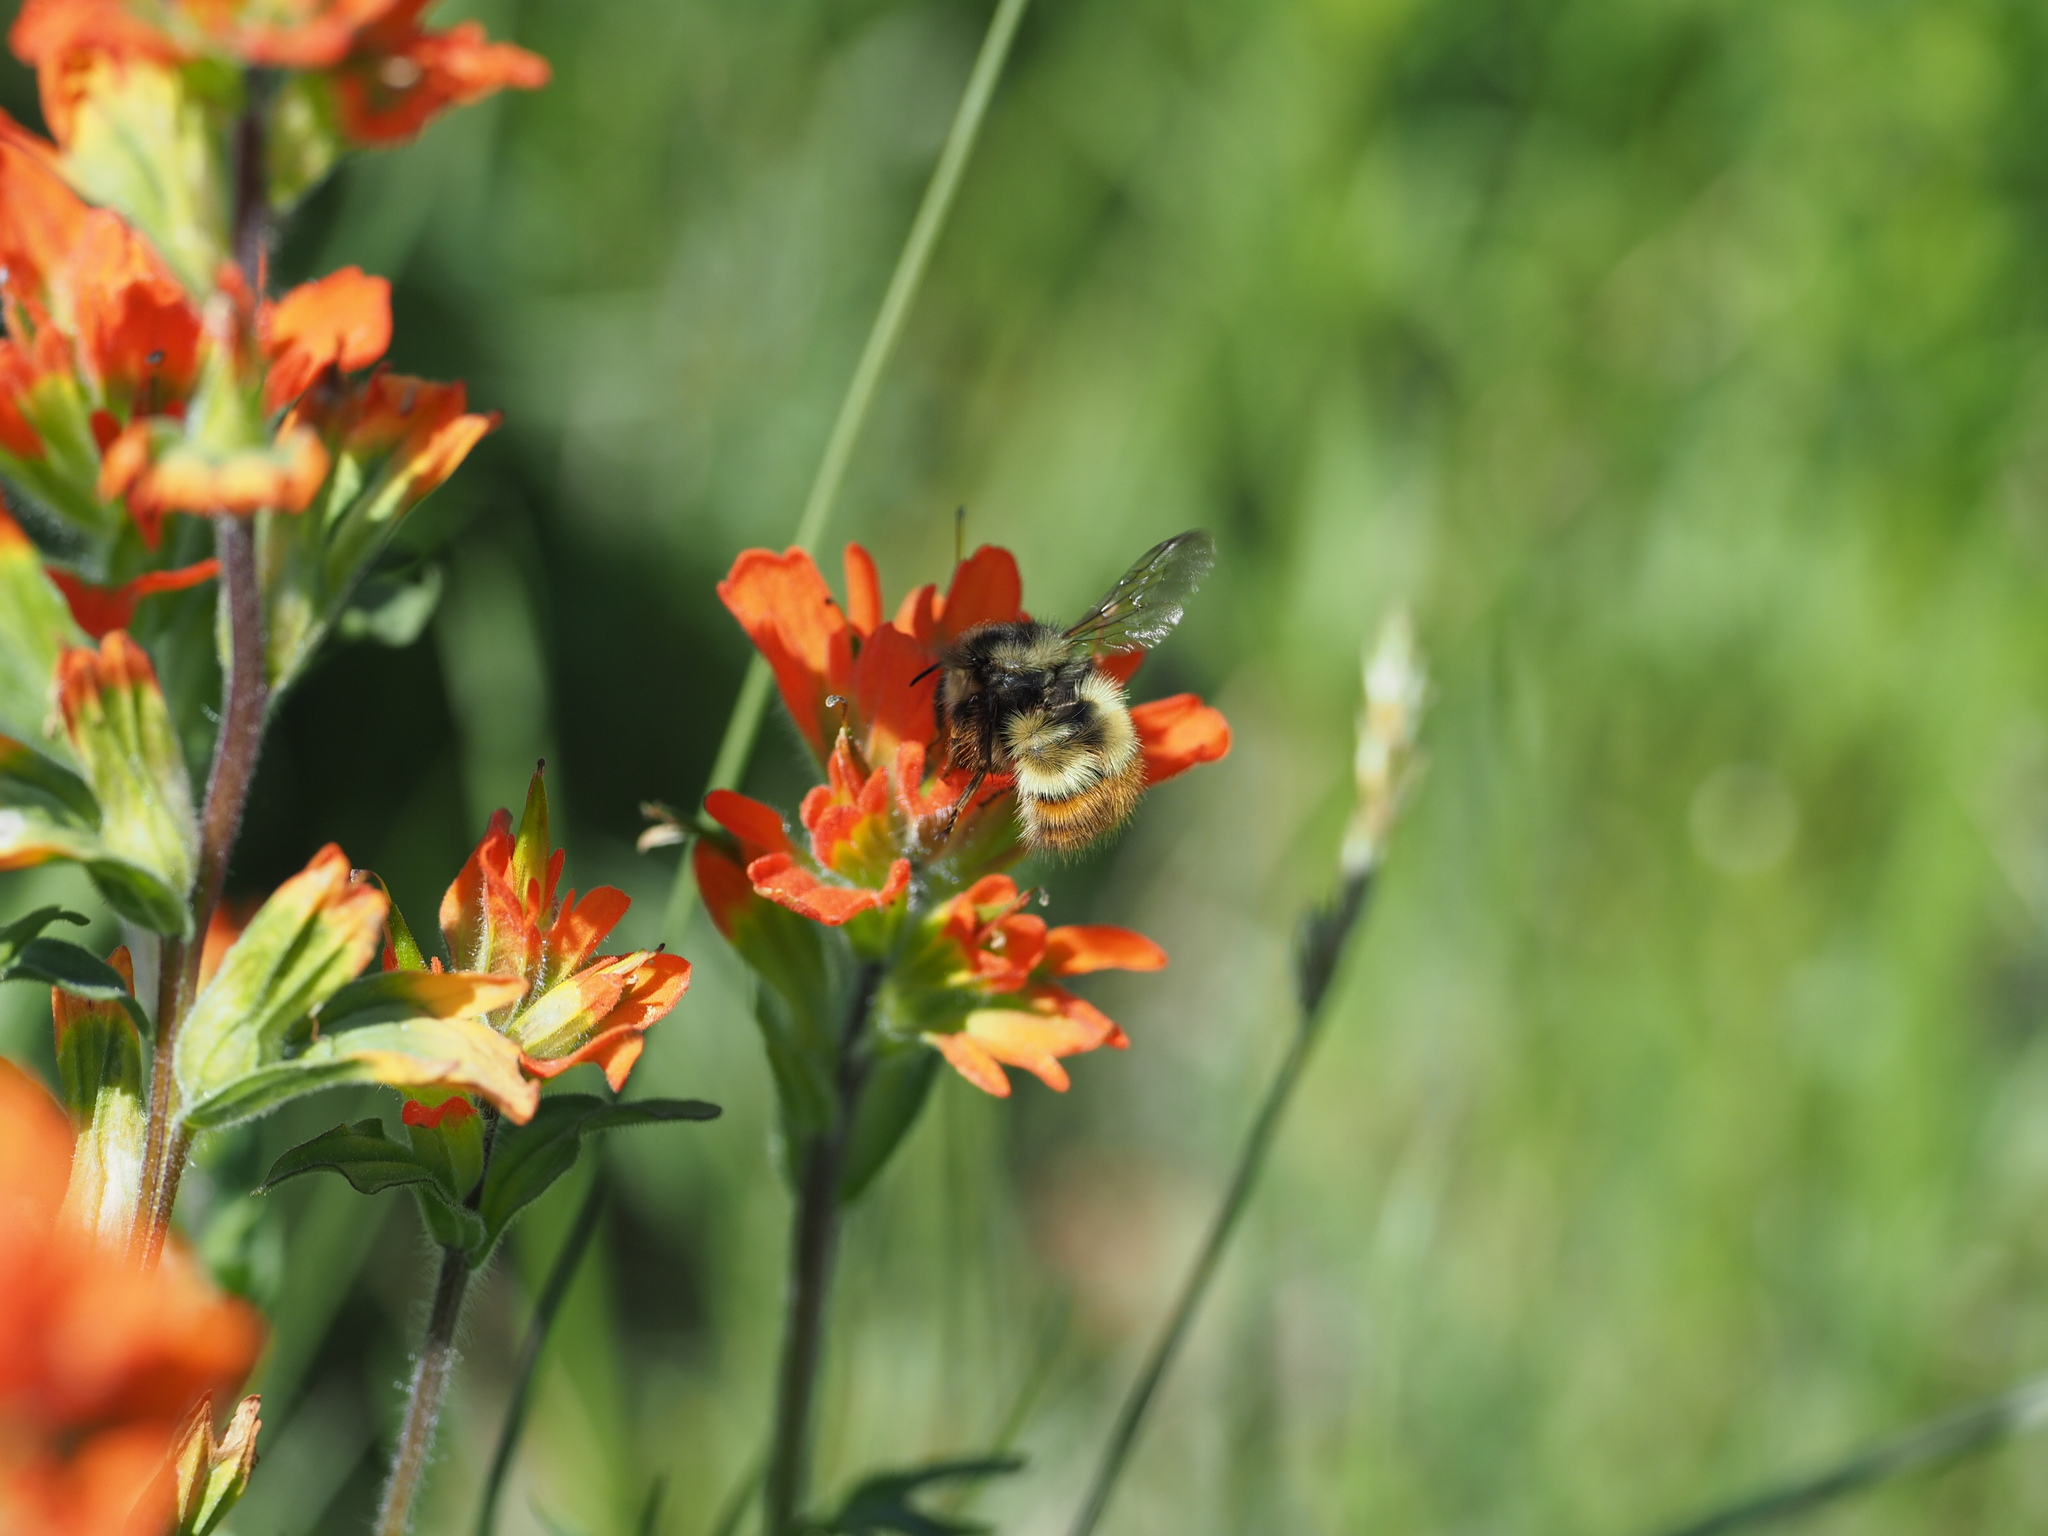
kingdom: Animalia
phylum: Arthropoda
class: Insecta
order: Hymenoptera
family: Apidae
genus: Bombus
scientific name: Bombus flavifrons
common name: Yellow head bumble bee
